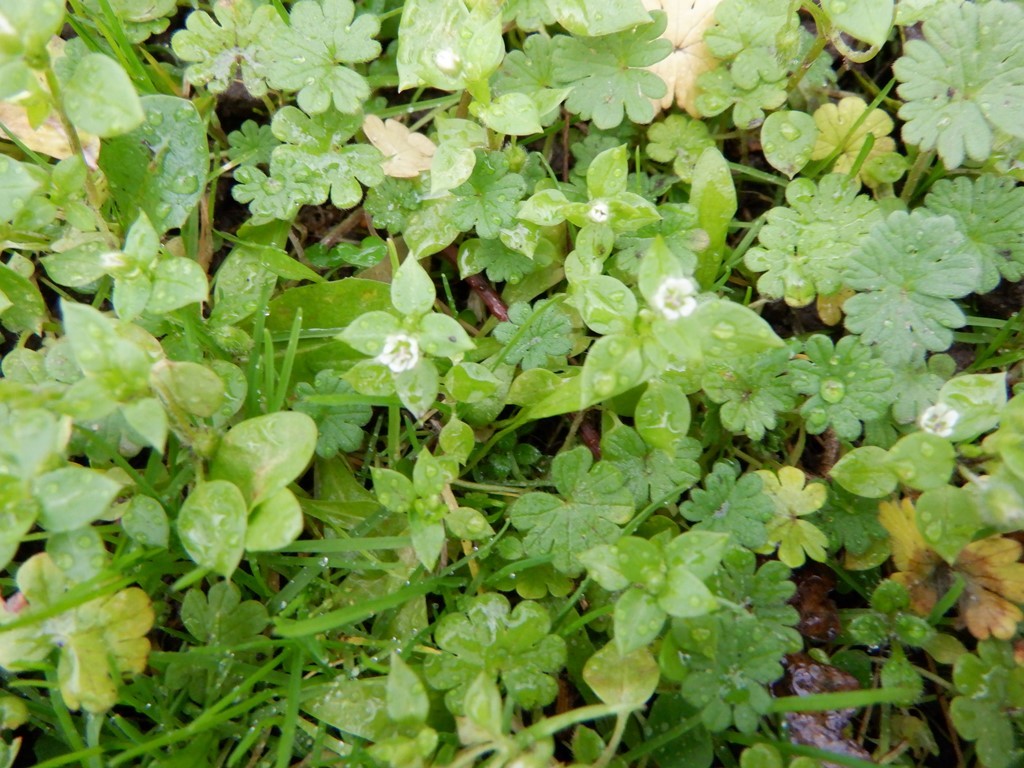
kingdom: Plantae
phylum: Tracheophyta
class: Magnoliopsida
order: Caryophyllales
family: Caryophyllaceae
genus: Stellaria
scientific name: Stellaria media
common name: Common chickweed
